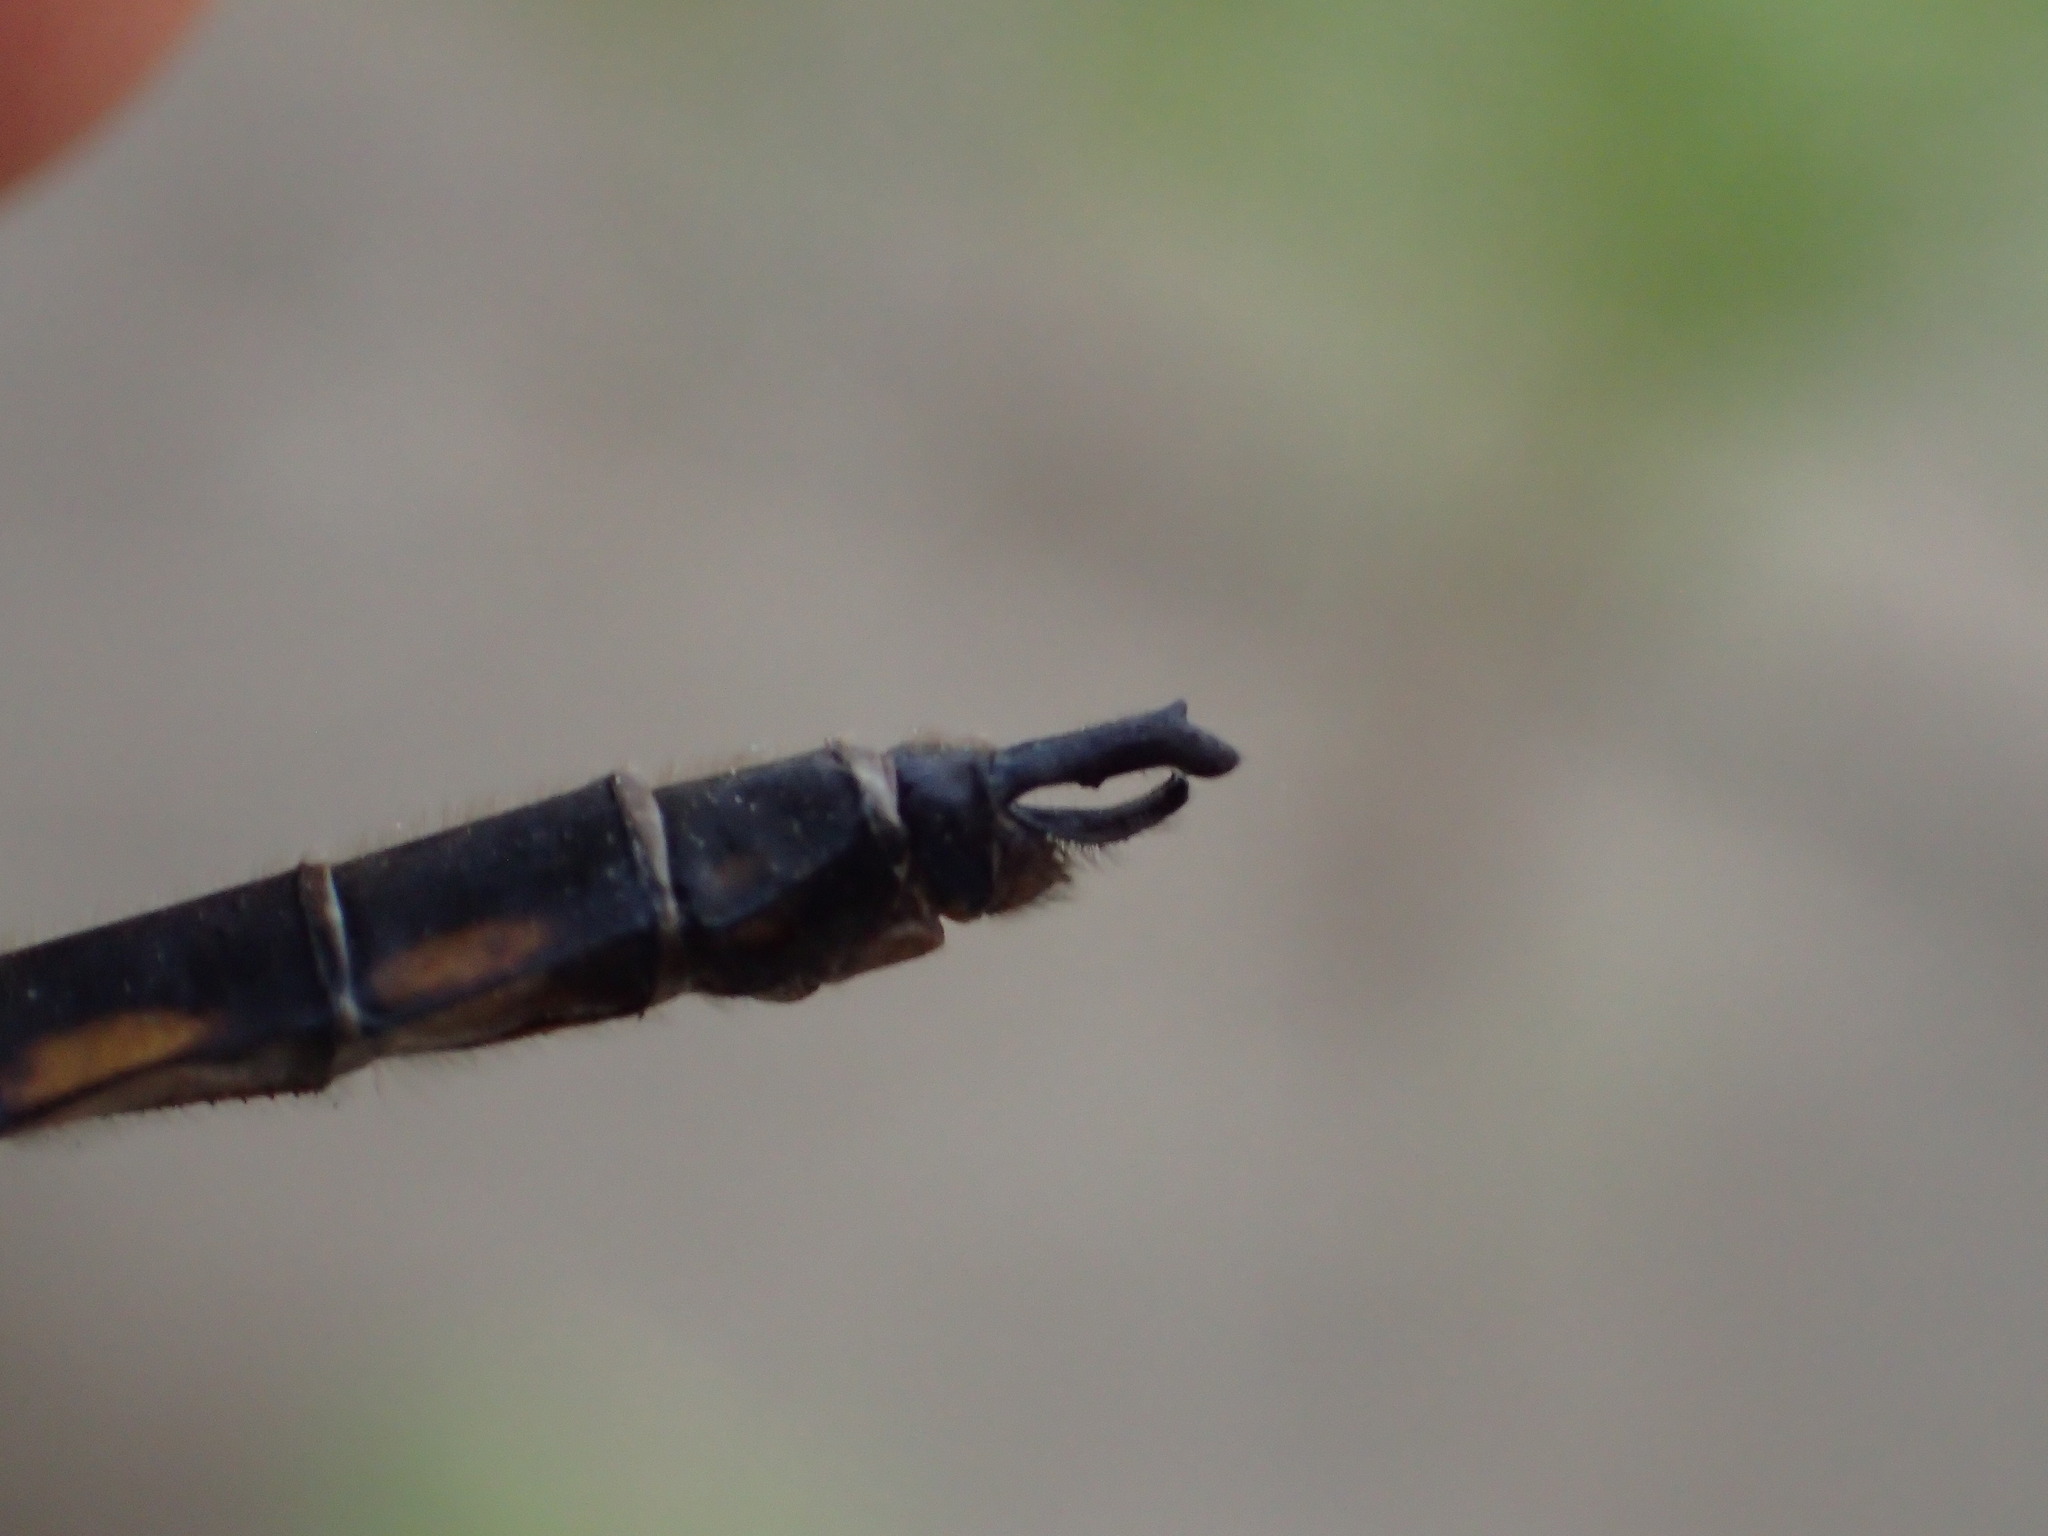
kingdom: Animalia
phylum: Arthropoda
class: Insecta
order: Odonata
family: Corduliidae
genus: Epitheca
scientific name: Epitheca canis
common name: Beaverpond baskettail
